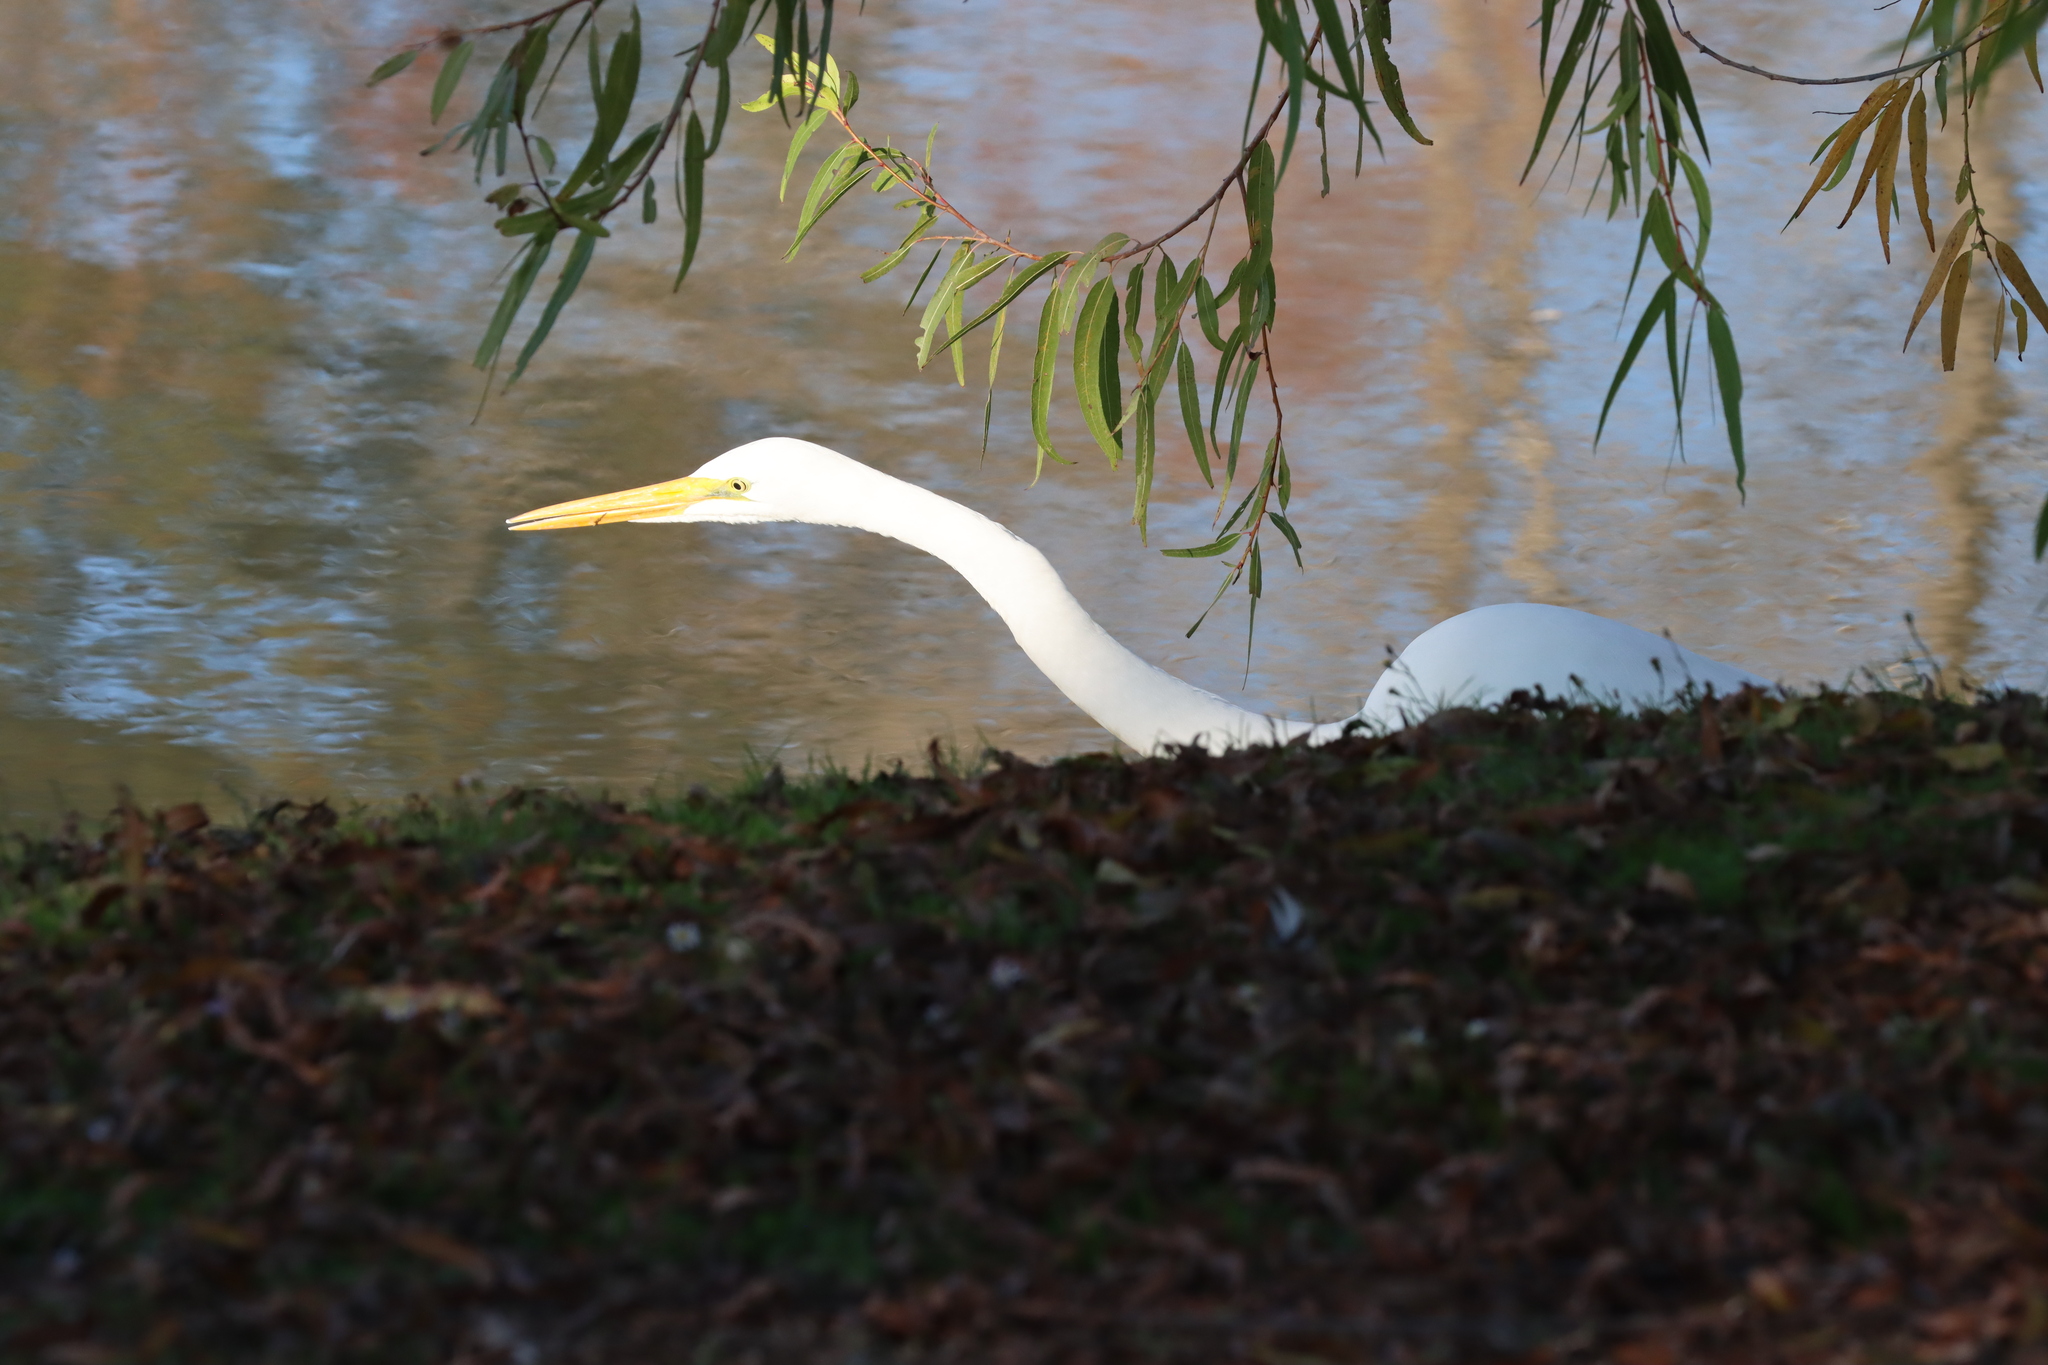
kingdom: Animalia
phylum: Chordata
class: Aves
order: Pelecaniformes
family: Ardeidae
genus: Ardea
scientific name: Ardea alba
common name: Great egret
